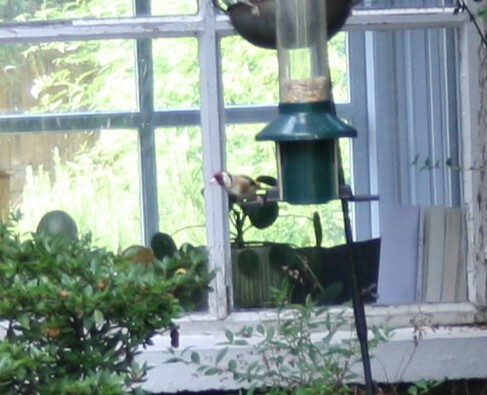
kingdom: Animalia
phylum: Chordata
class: Aves
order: Passeriformes
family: Fringillidae
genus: Carduelis
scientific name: Carduelis carduelis
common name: European goldfinch
